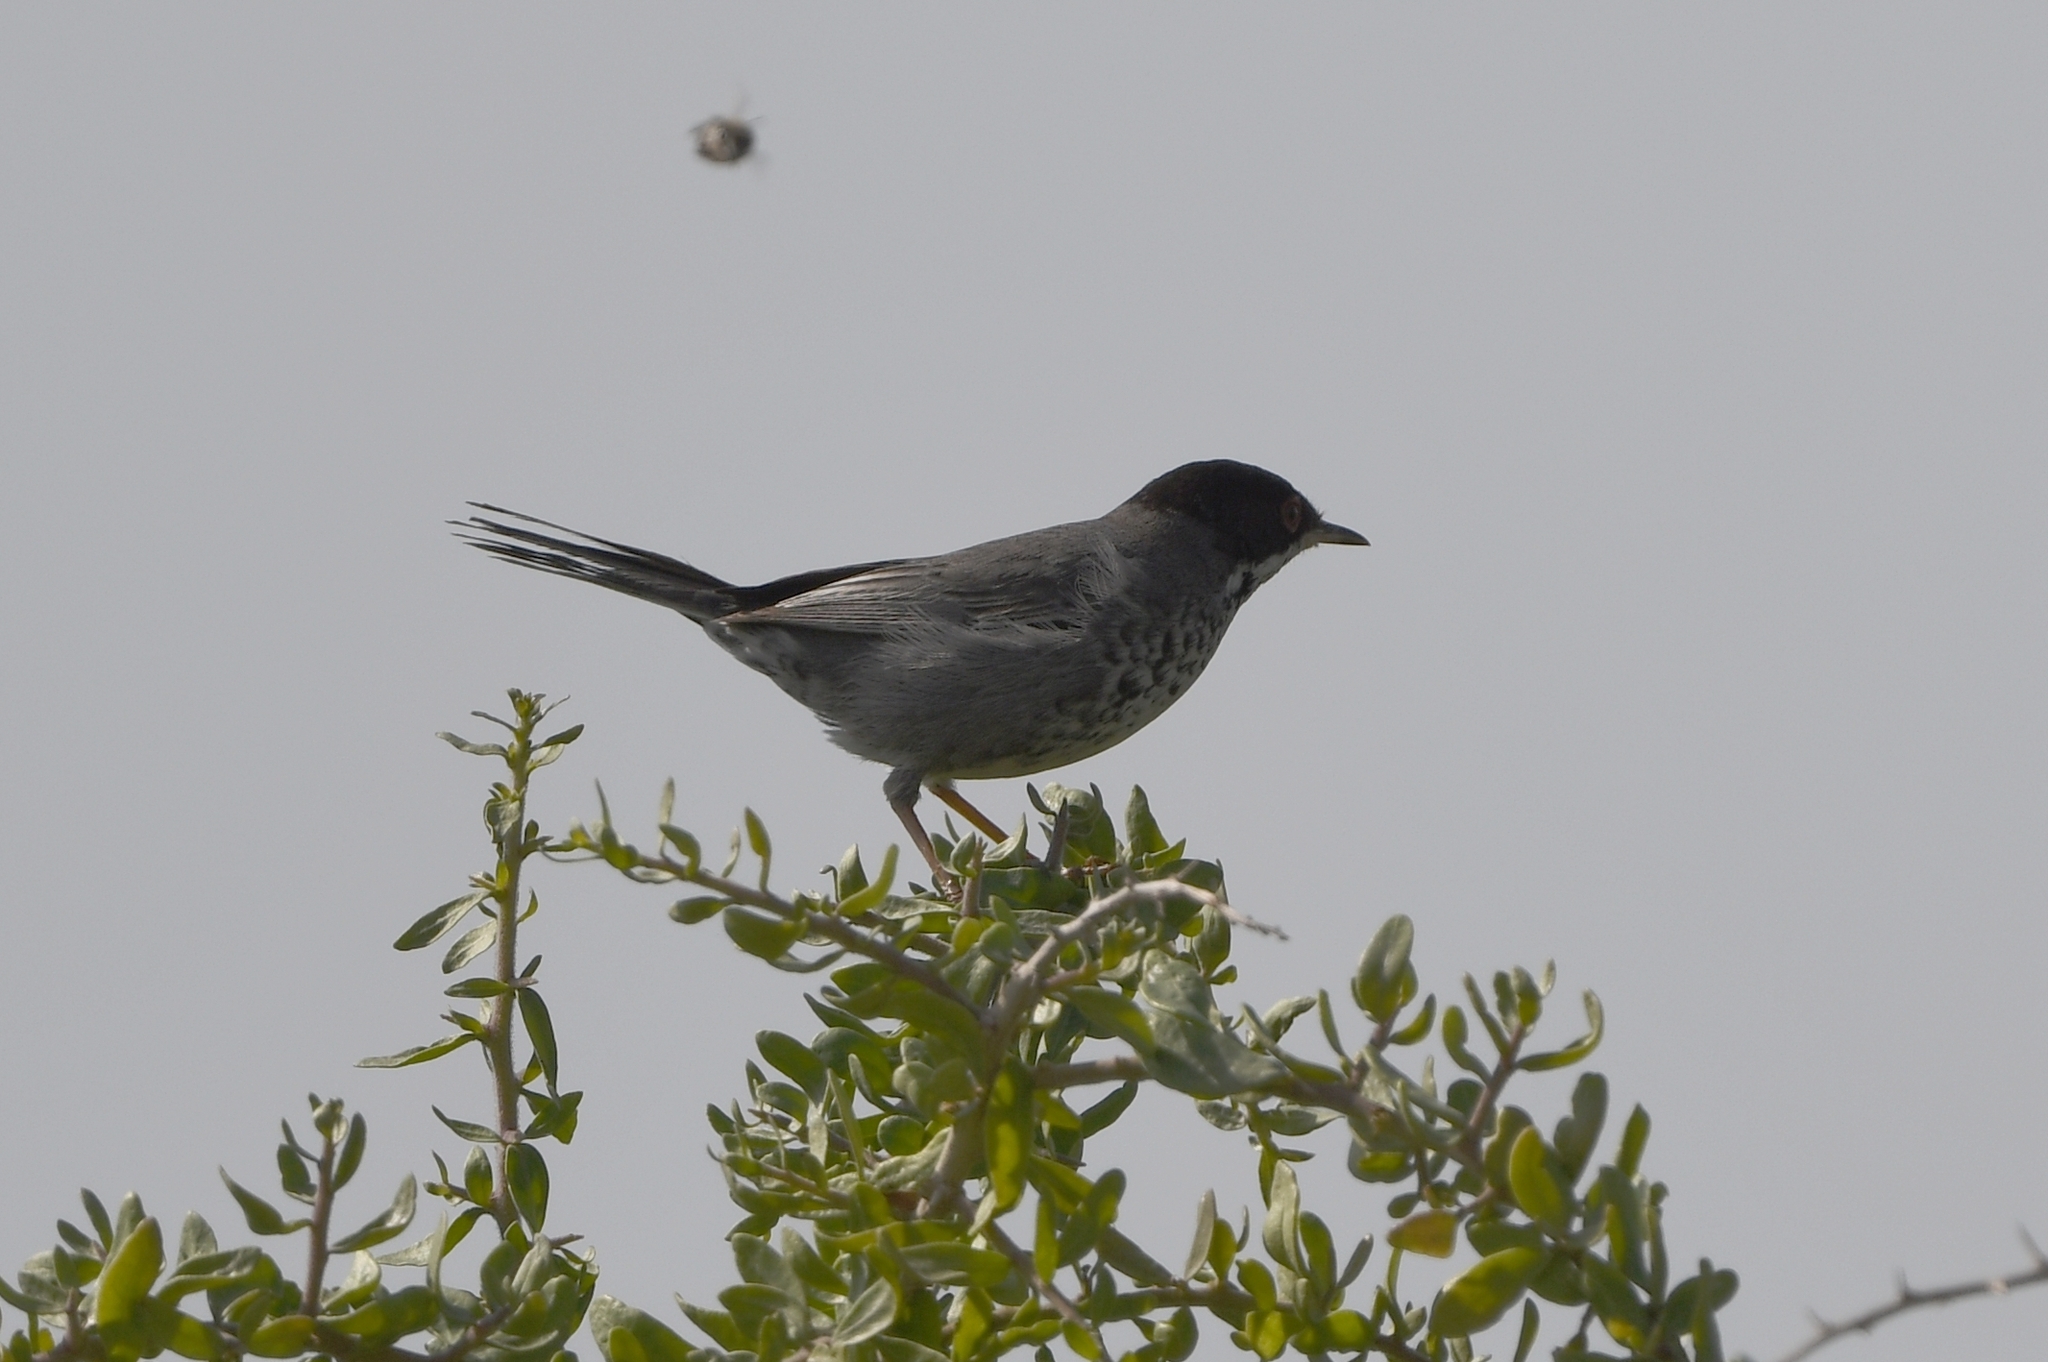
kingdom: Animalia
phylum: Chordata
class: Aves
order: Passeriformes
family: Sylviidae
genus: Sylvia
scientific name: Sylvia melanothorax
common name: Cyprus warbler
